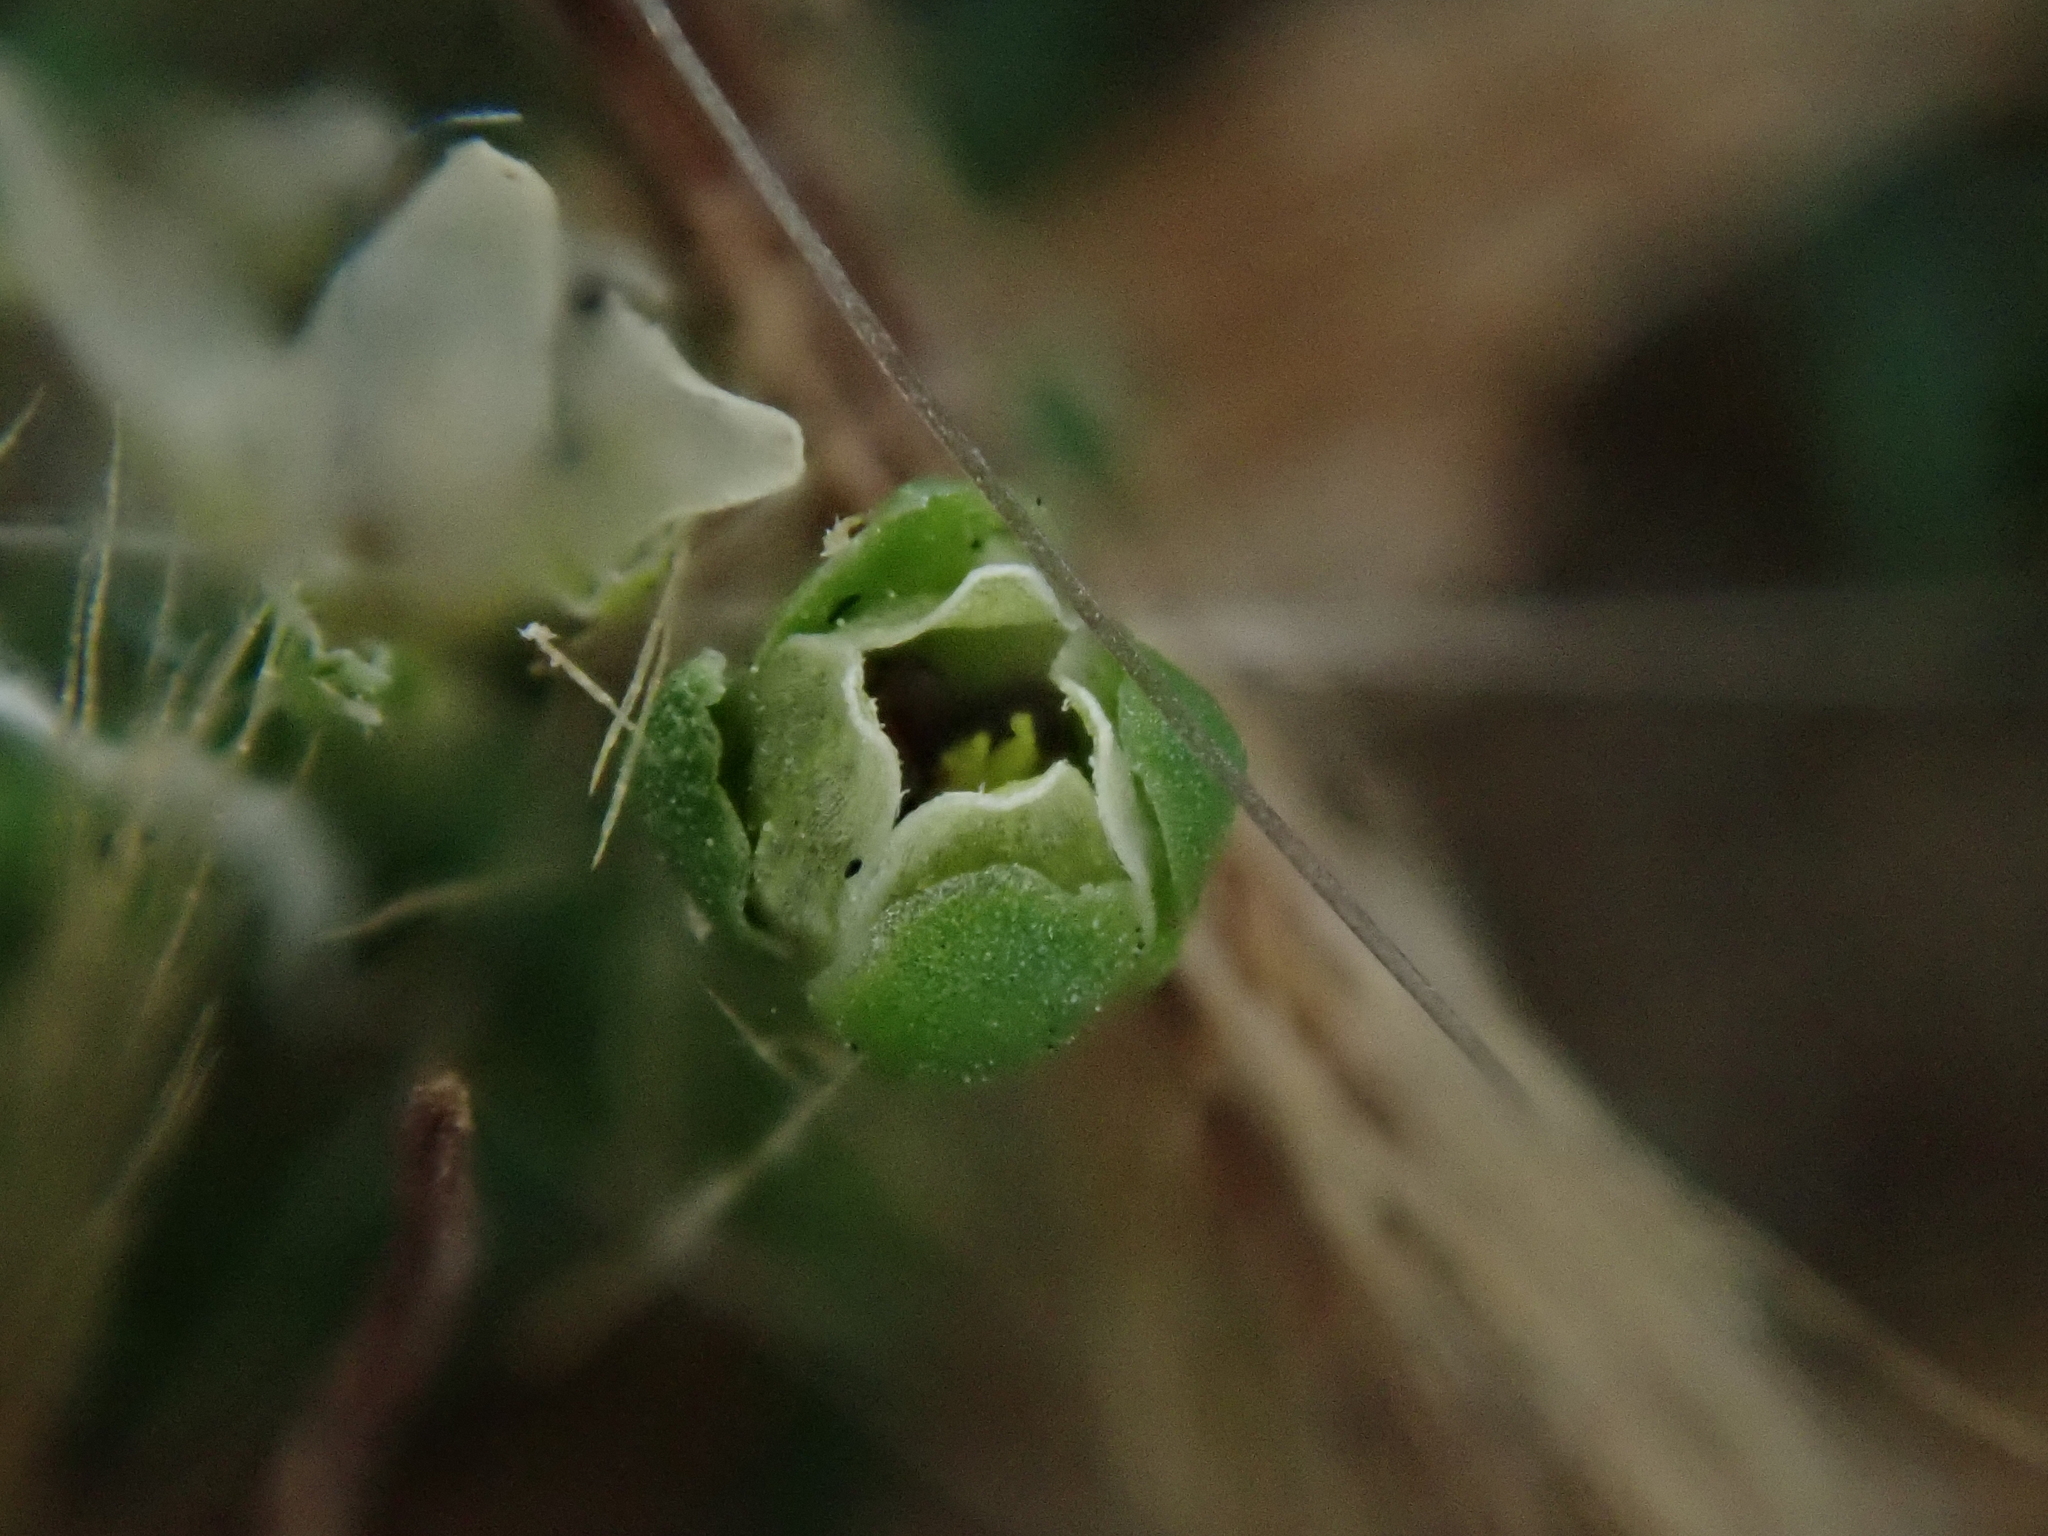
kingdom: Plantae
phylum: Tracheophyta
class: Magnoliopsida
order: Caryophyllales
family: Caryophyllaceae
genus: Sagina
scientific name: Sagina procumbens
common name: Procumbent pearlwort
